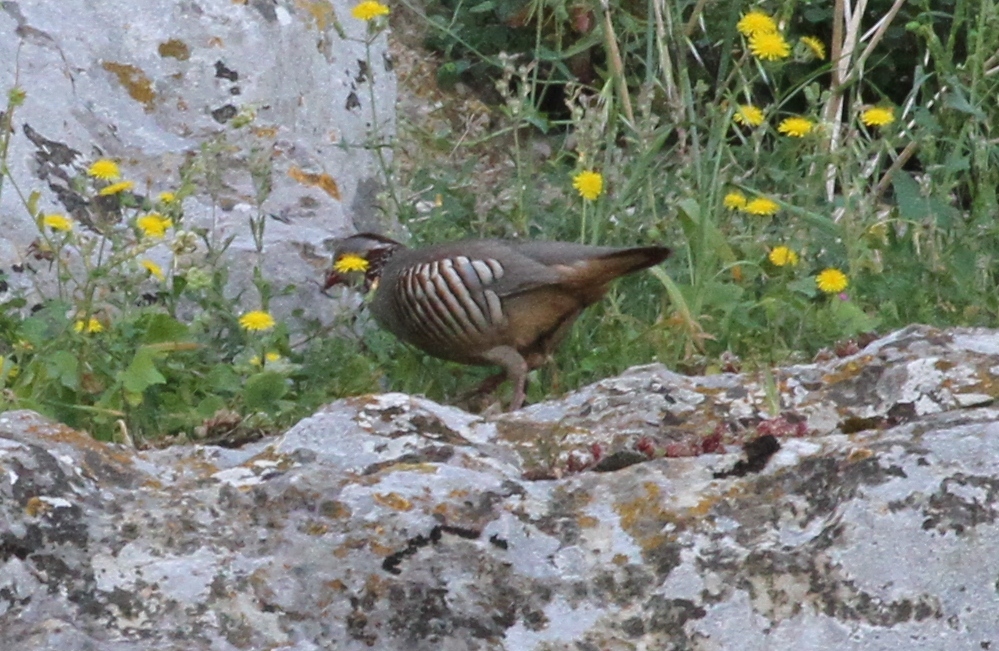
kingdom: Animalia
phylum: Chordata
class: Aves
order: Galliformes
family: Phasianidae
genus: Alectoris
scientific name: Alectoris barbara
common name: Barbary partridge
